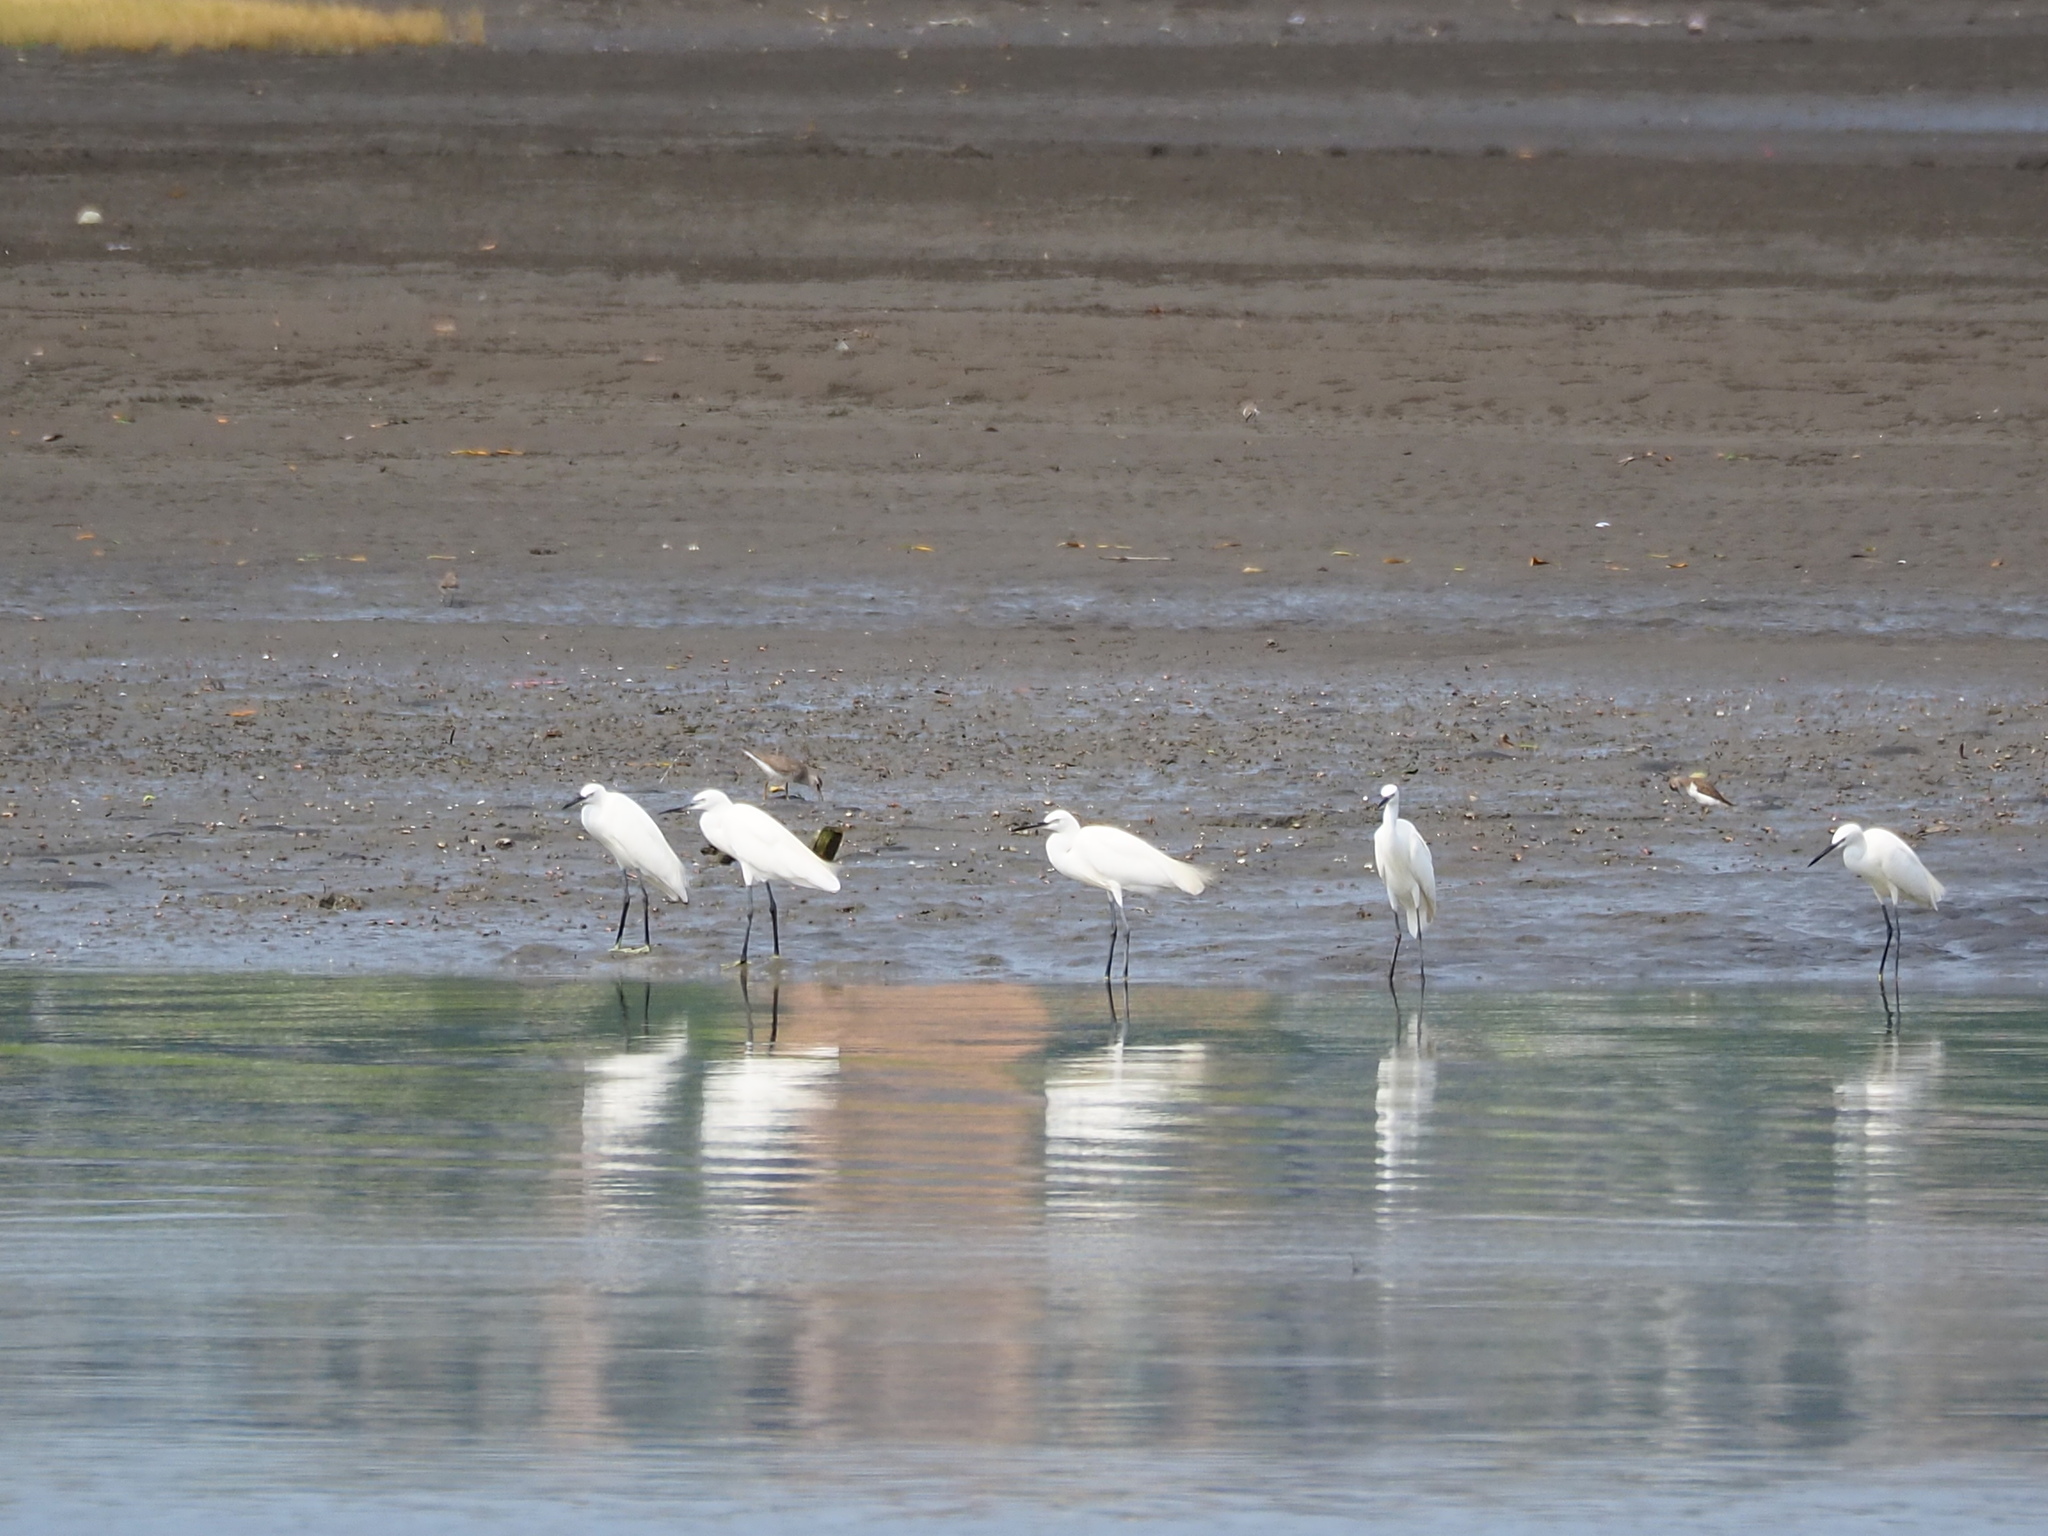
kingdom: Animalia
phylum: Chordata
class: Aves
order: Pelecaniformes
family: Ardeidae
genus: Egretta
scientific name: Egretta garzetta
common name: Little egret
